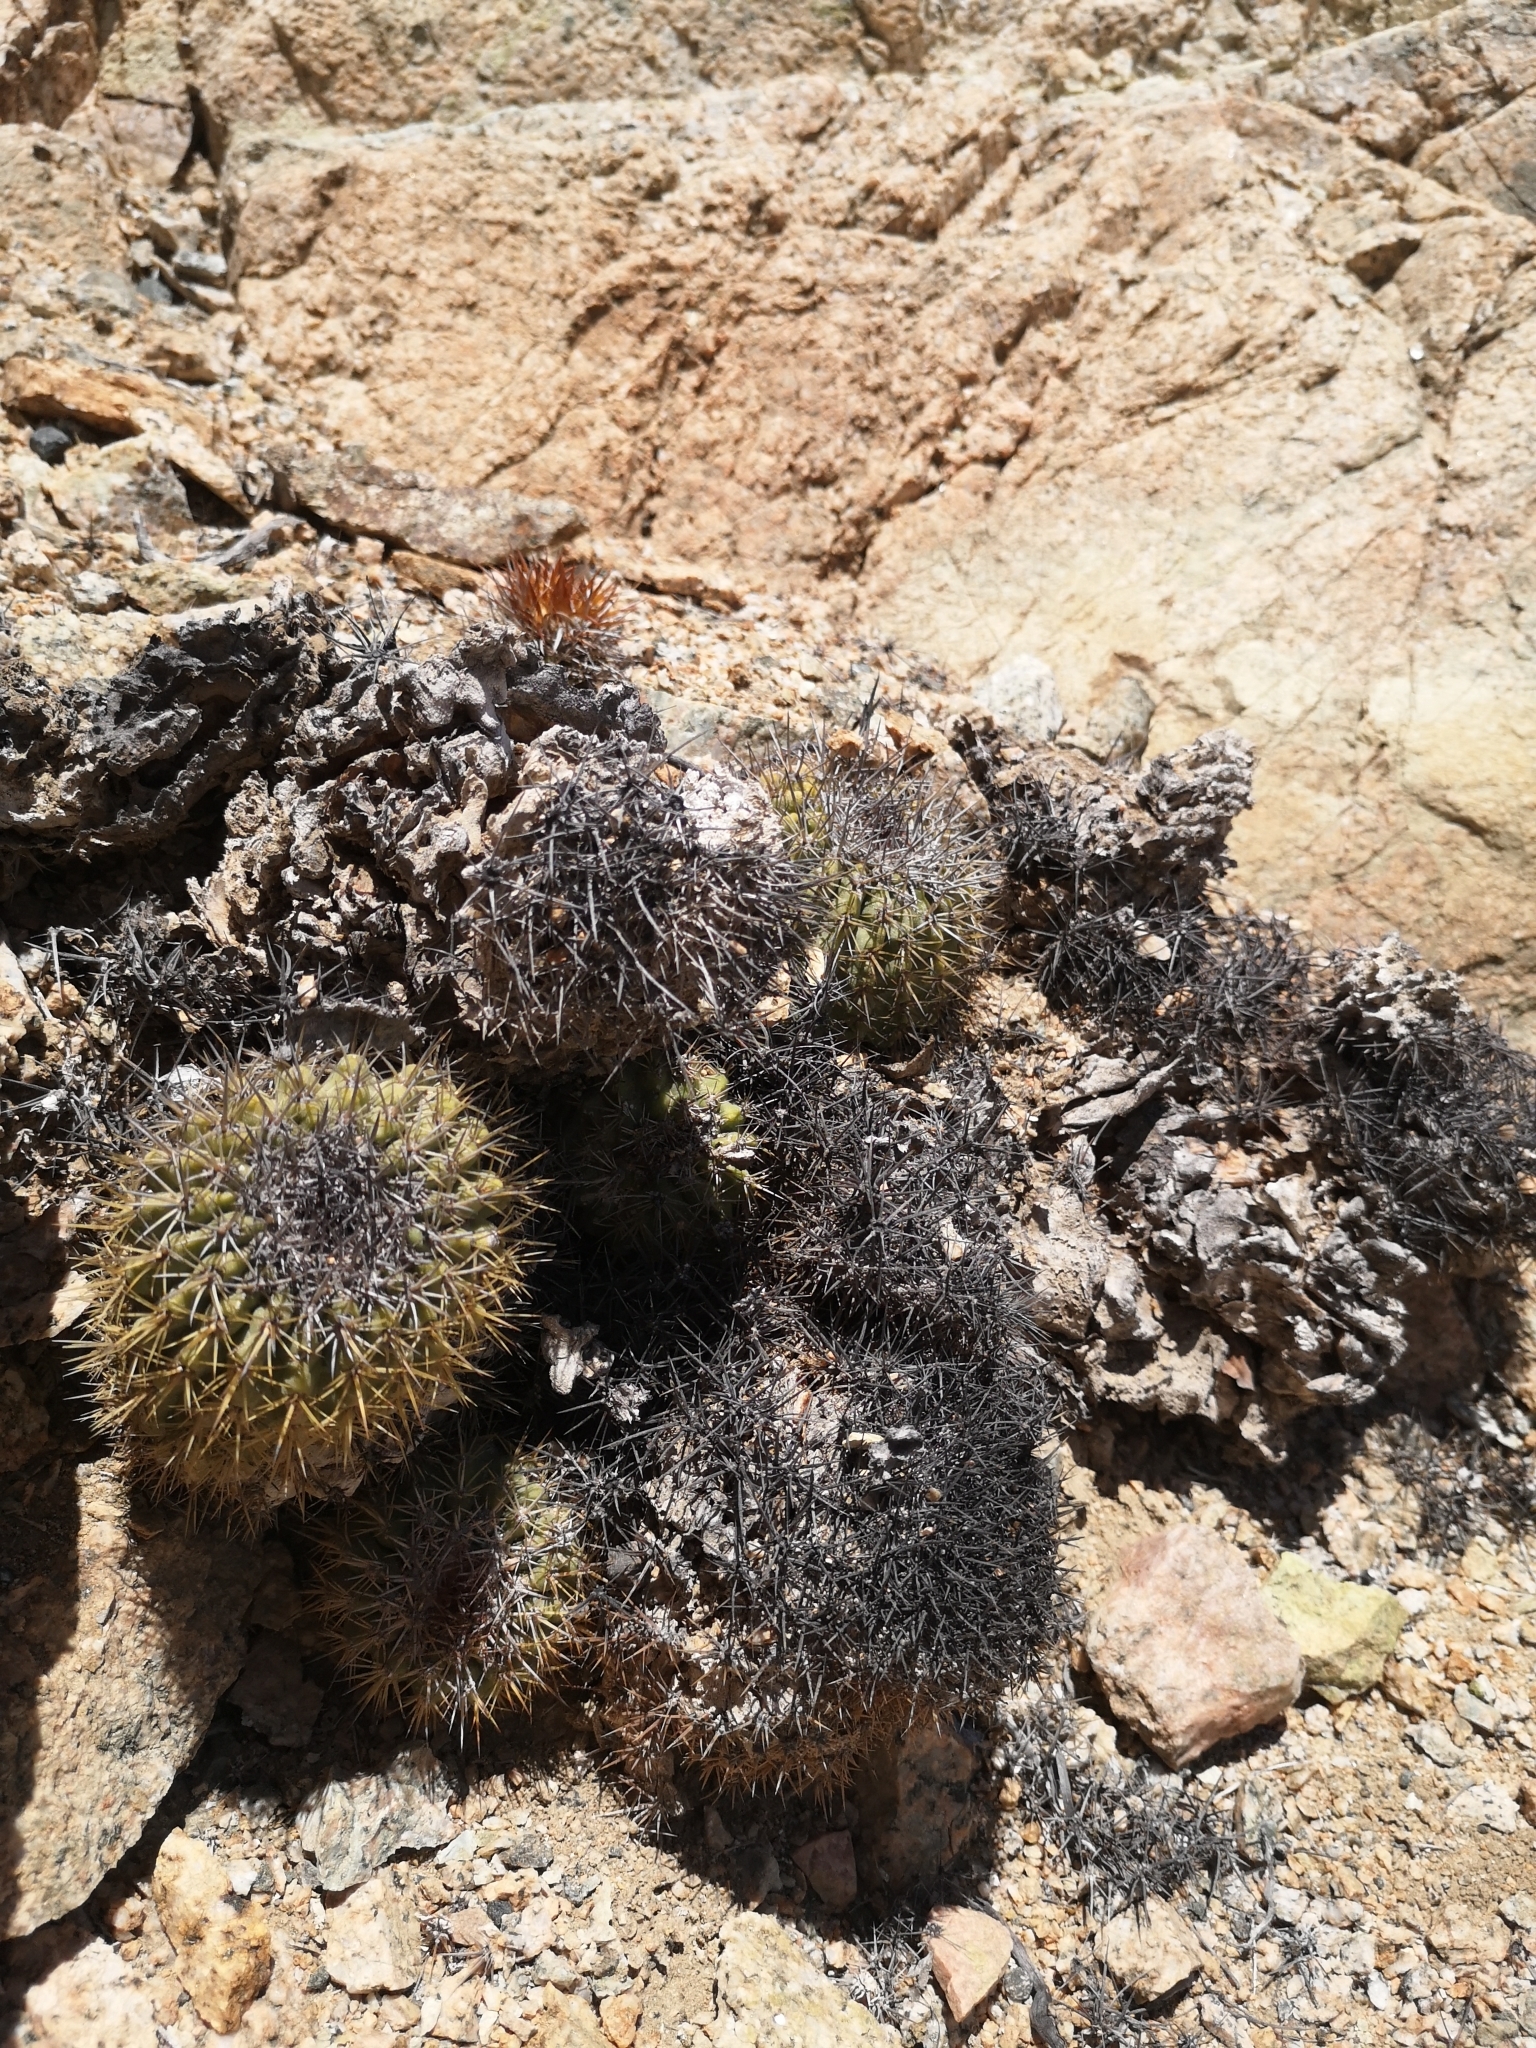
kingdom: Plantae
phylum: Tracheophyta
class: Magnoliopsida
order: Caryophyllales
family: Cactaceae
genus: Copiapoa
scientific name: Copiapoa decorticans
